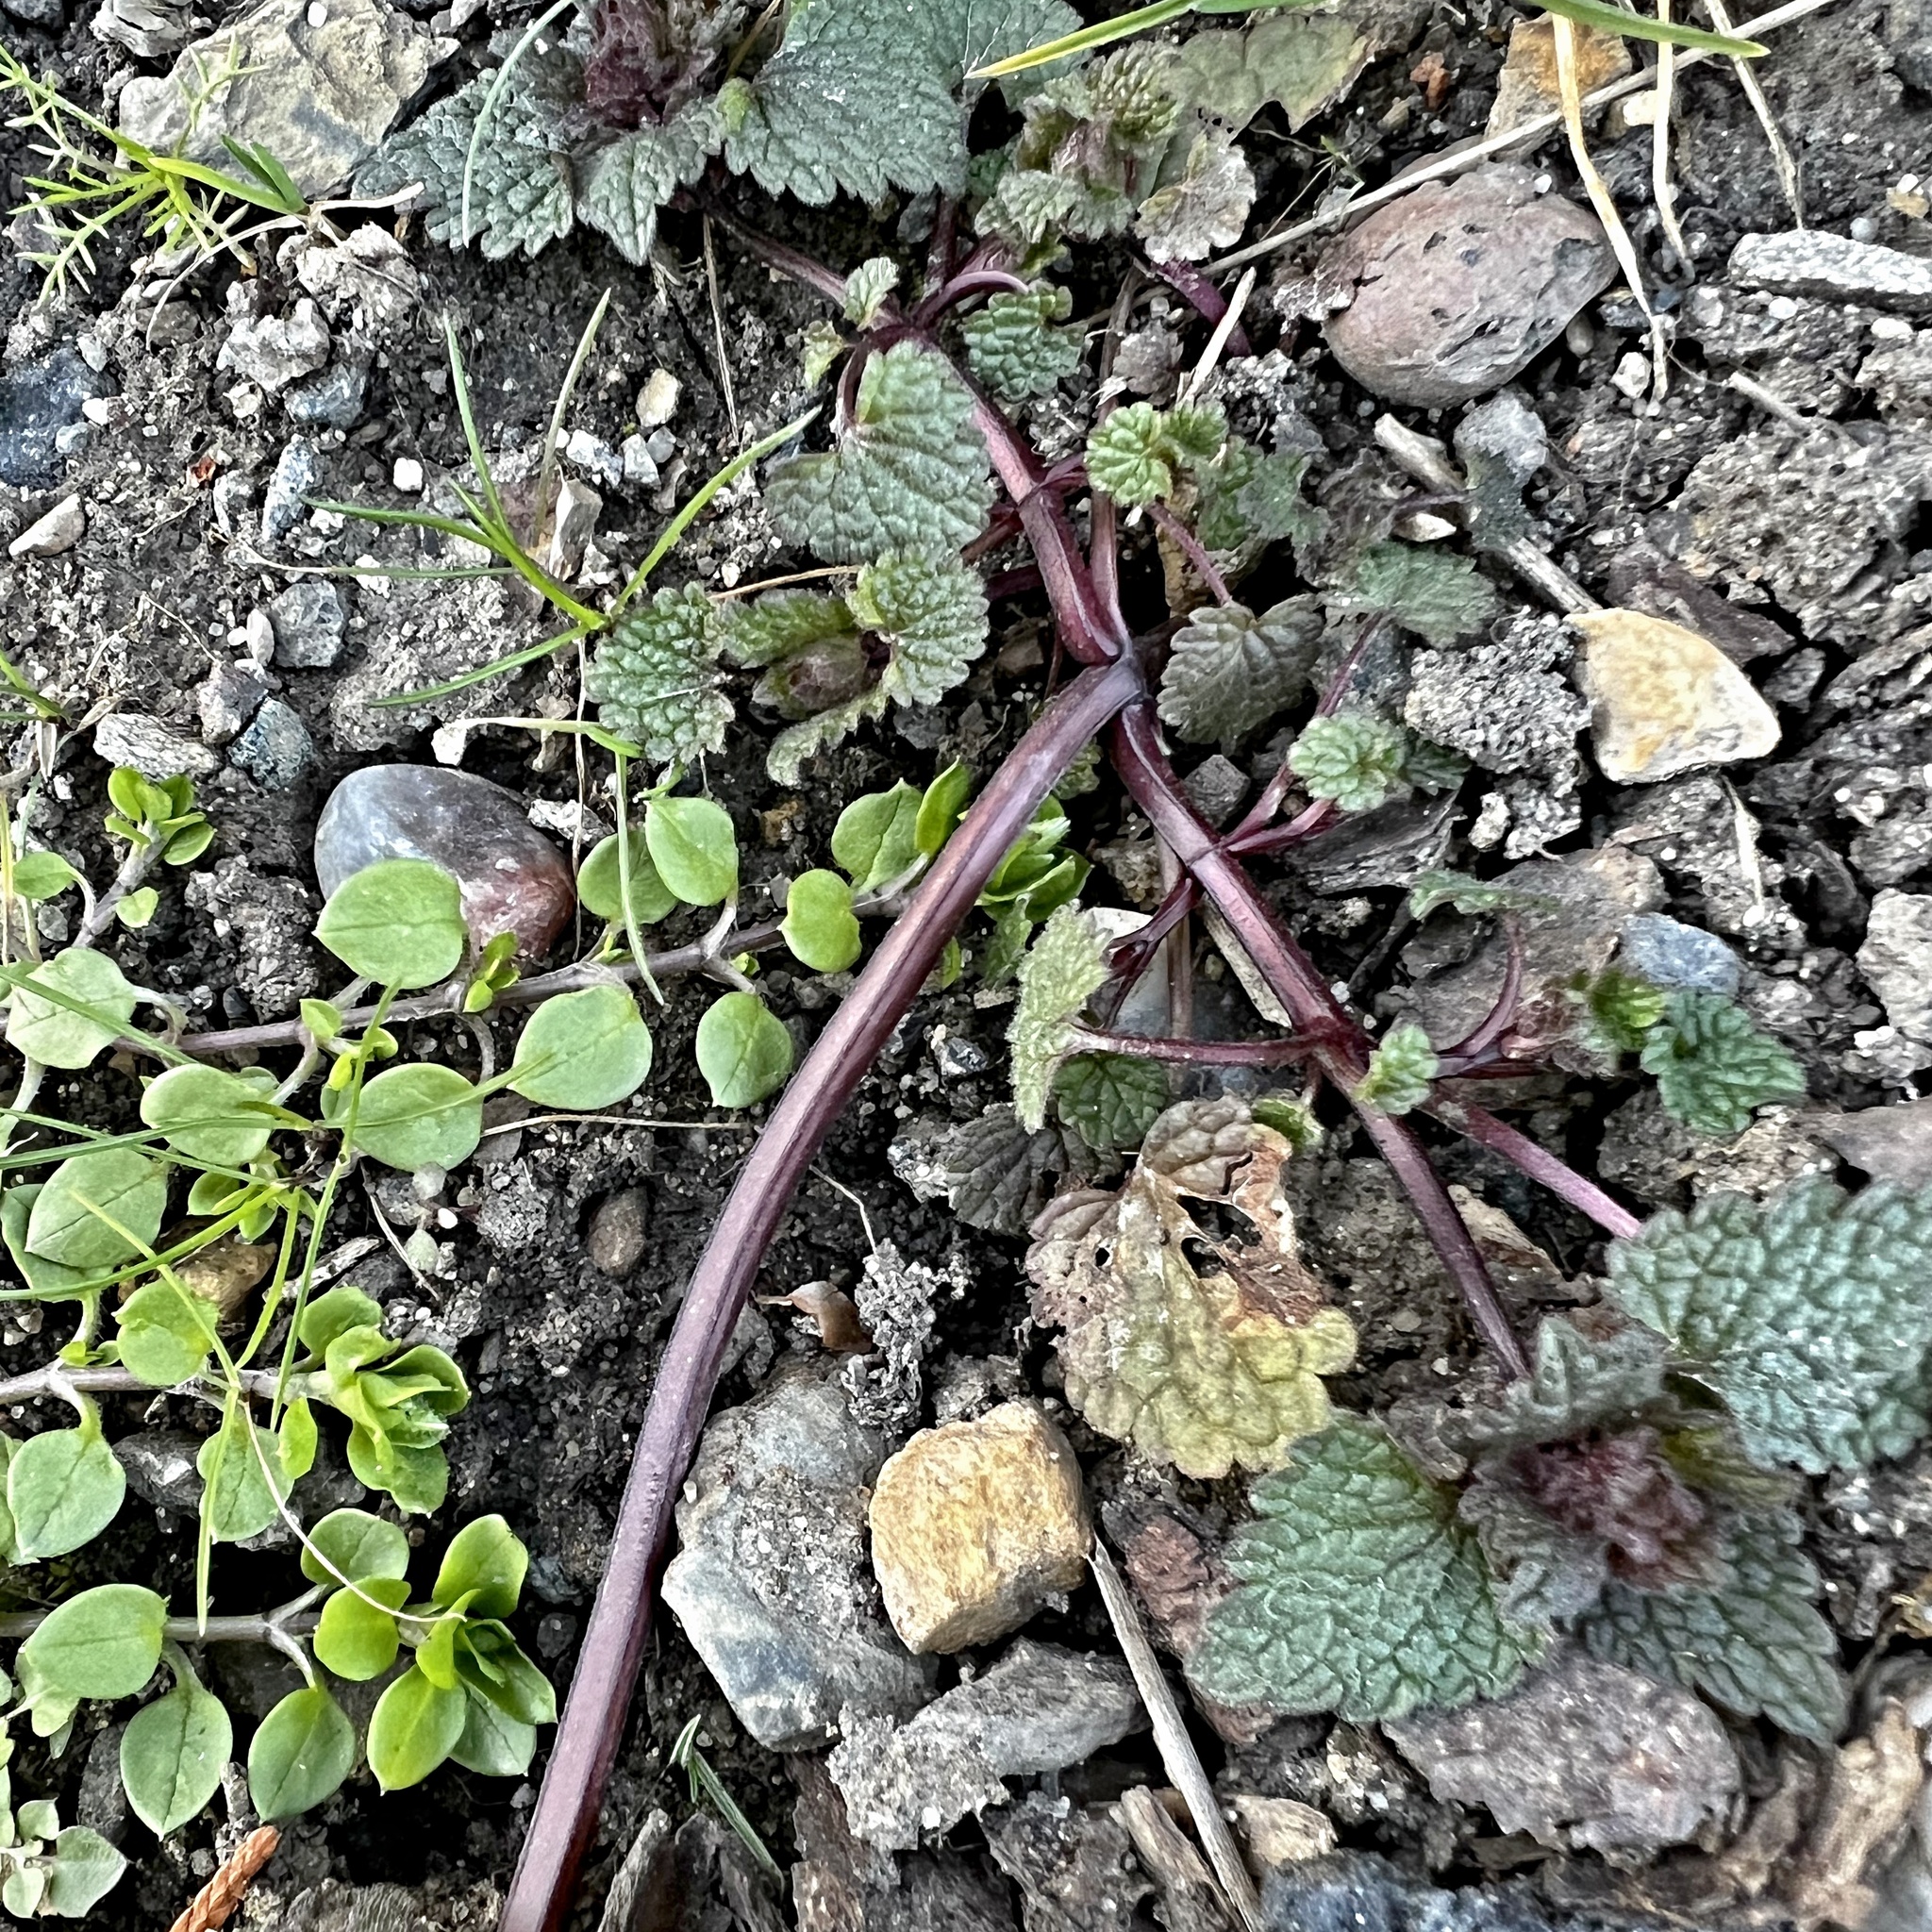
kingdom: Plantae
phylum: Tracheophyta
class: Magnoliopsida
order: Lamiales
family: Lamiaceae
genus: Lamium
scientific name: Lamium purpureum
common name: Red dead-nettle
